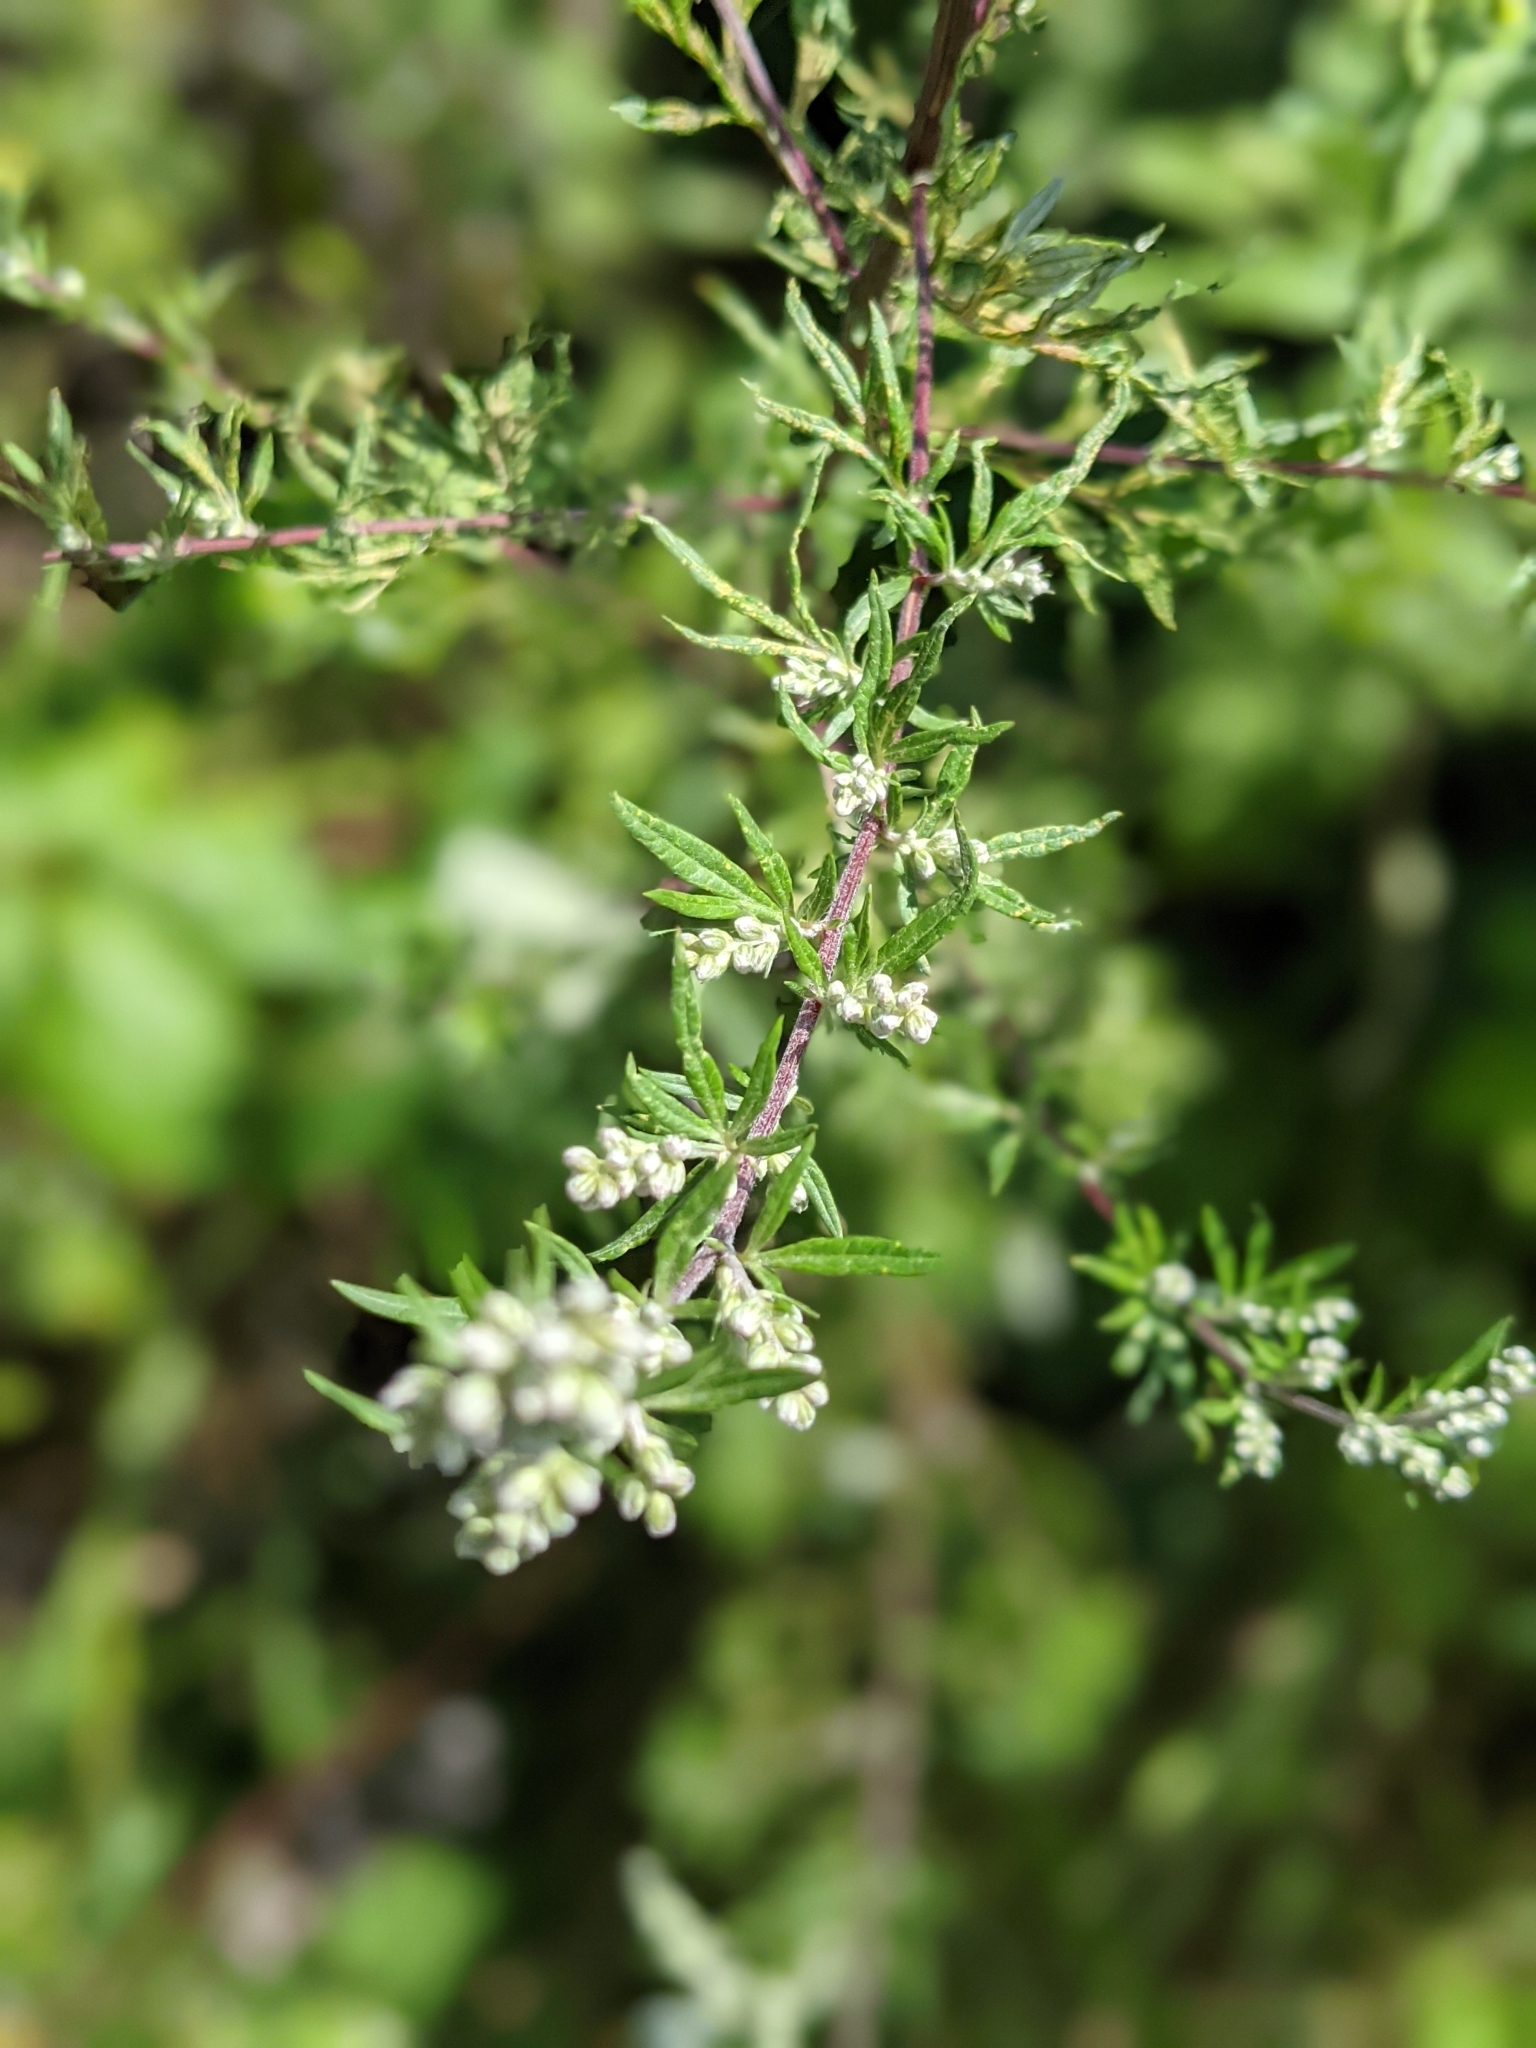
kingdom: Plantae
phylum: Tracheophyta
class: Magnoliopsida
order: Asterales
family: Asteraceae
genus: Artemisia
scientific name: Artemisia vulgaris
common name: Mugwort
